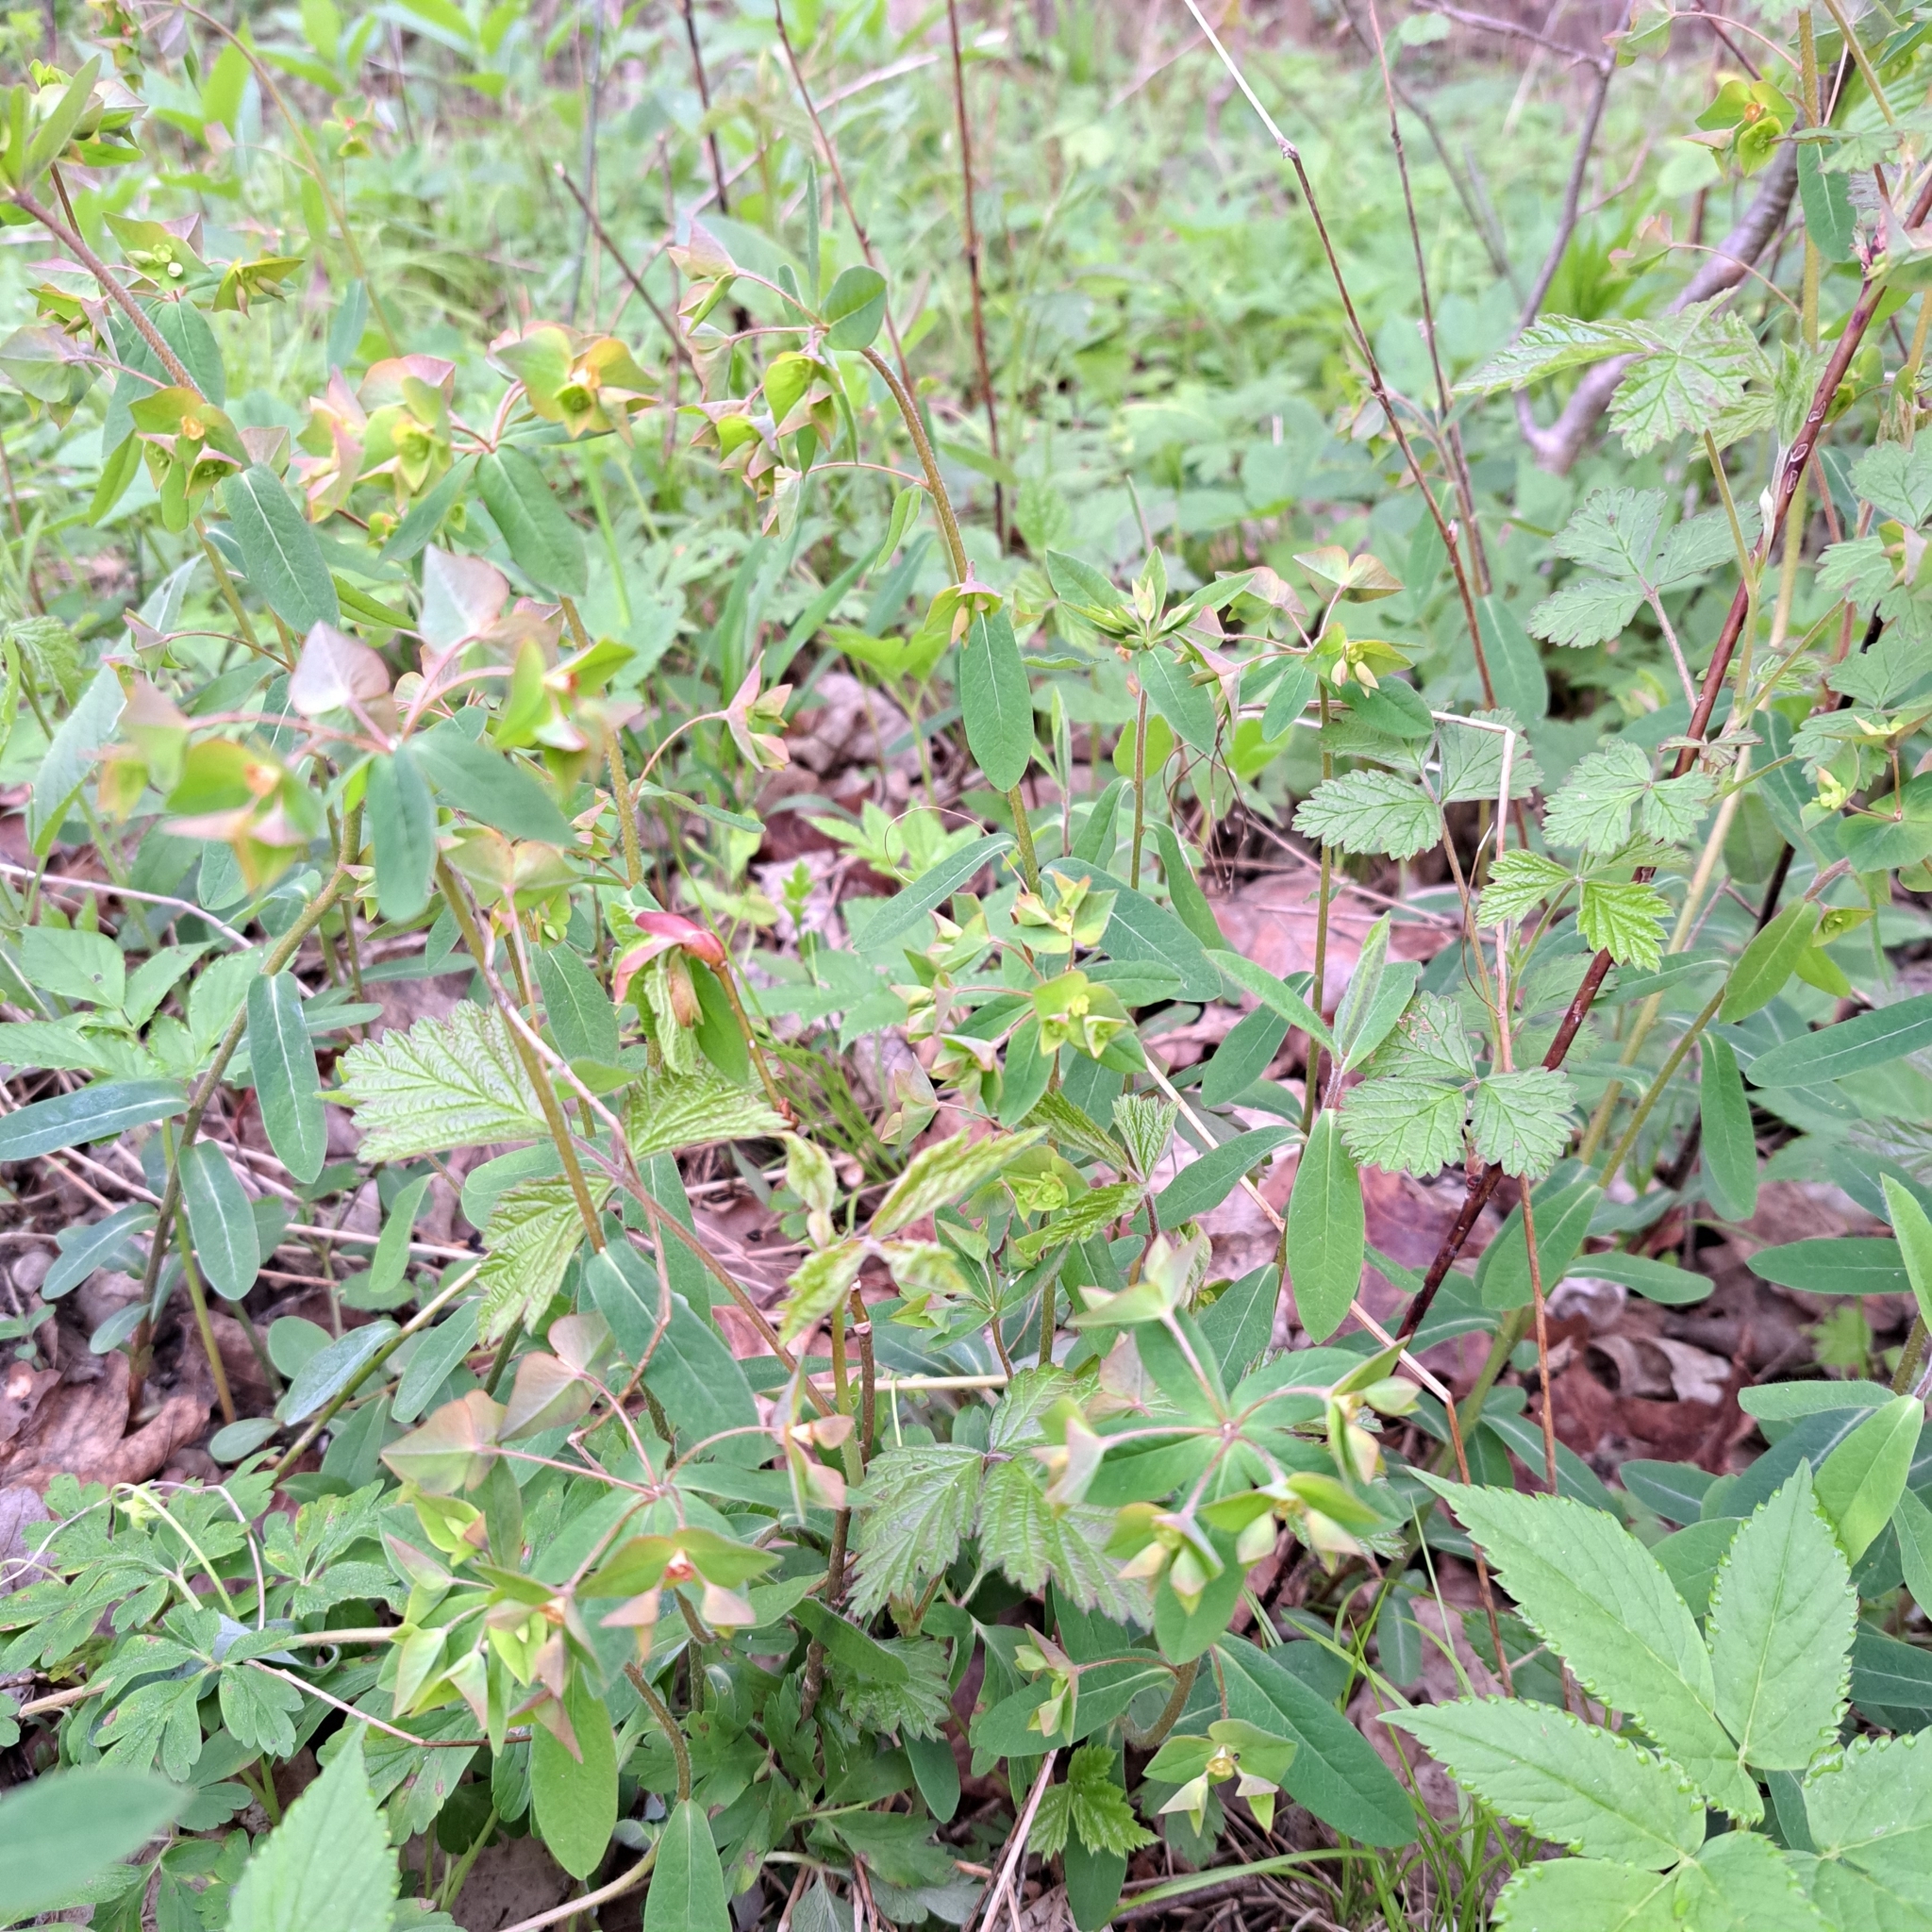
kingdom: Plantae
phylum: Tracheophyta
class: Magnoliopsida
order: Malpighiales
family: Euphorbiaceae
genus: Euphorbia
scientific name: Euphorbia dulcis
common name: Sweet spurge
